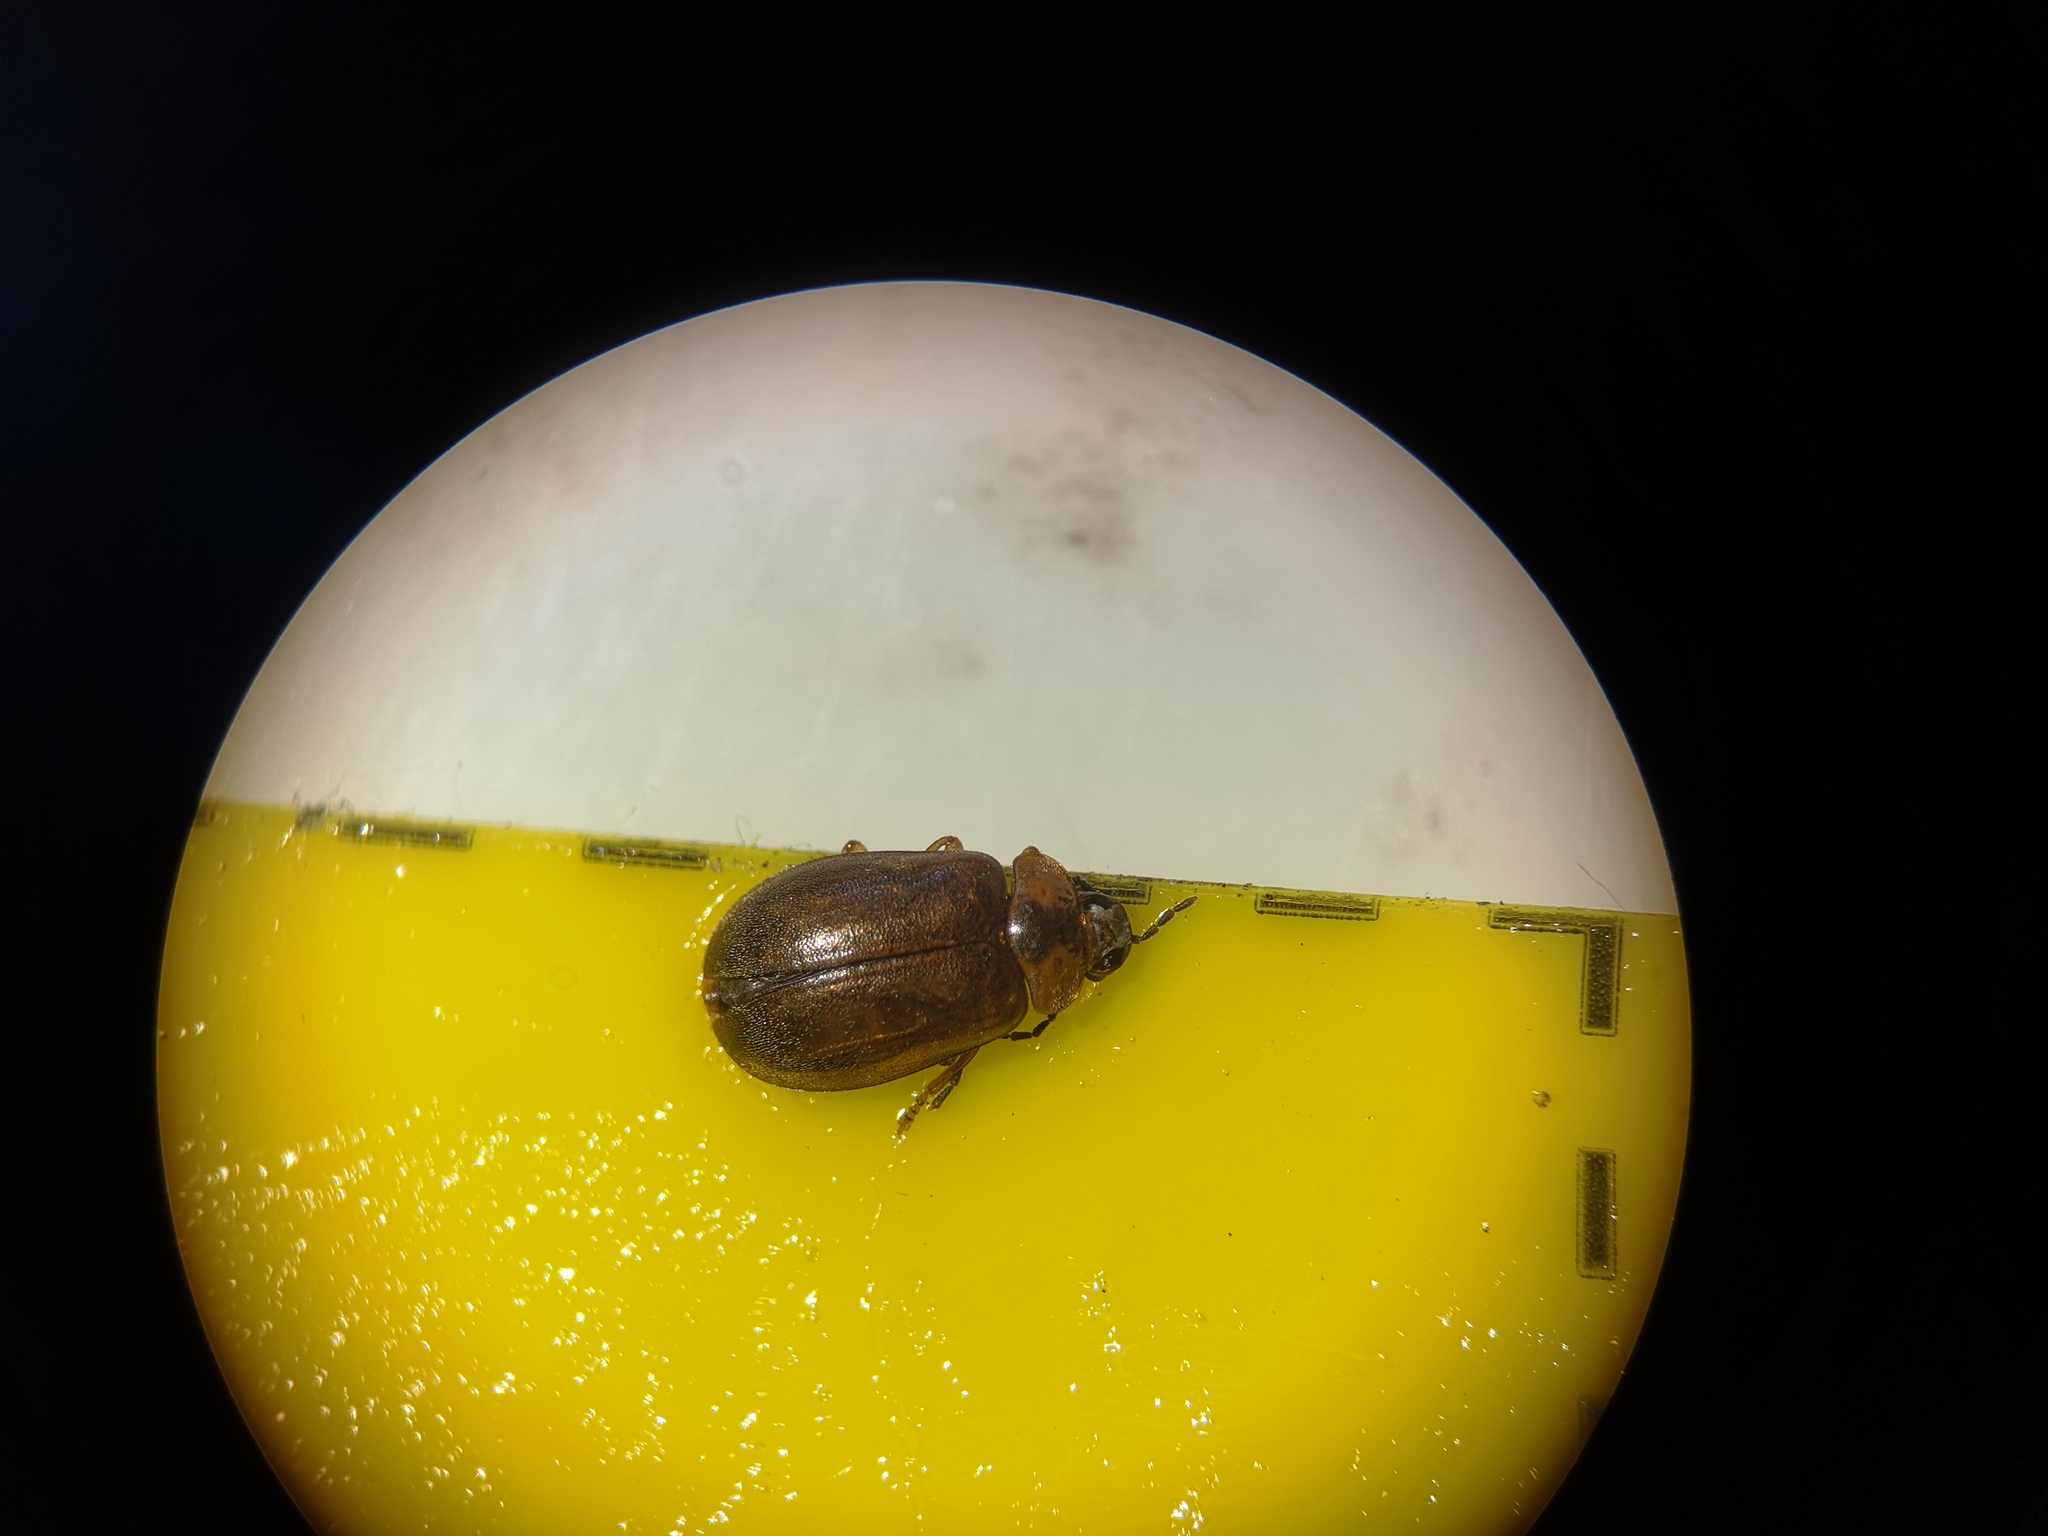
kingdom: Animalia
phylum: Arthropoda
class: Insecta
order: Coleoptera
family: Scirtidae
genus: Microcara
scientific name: Microcara testacea
